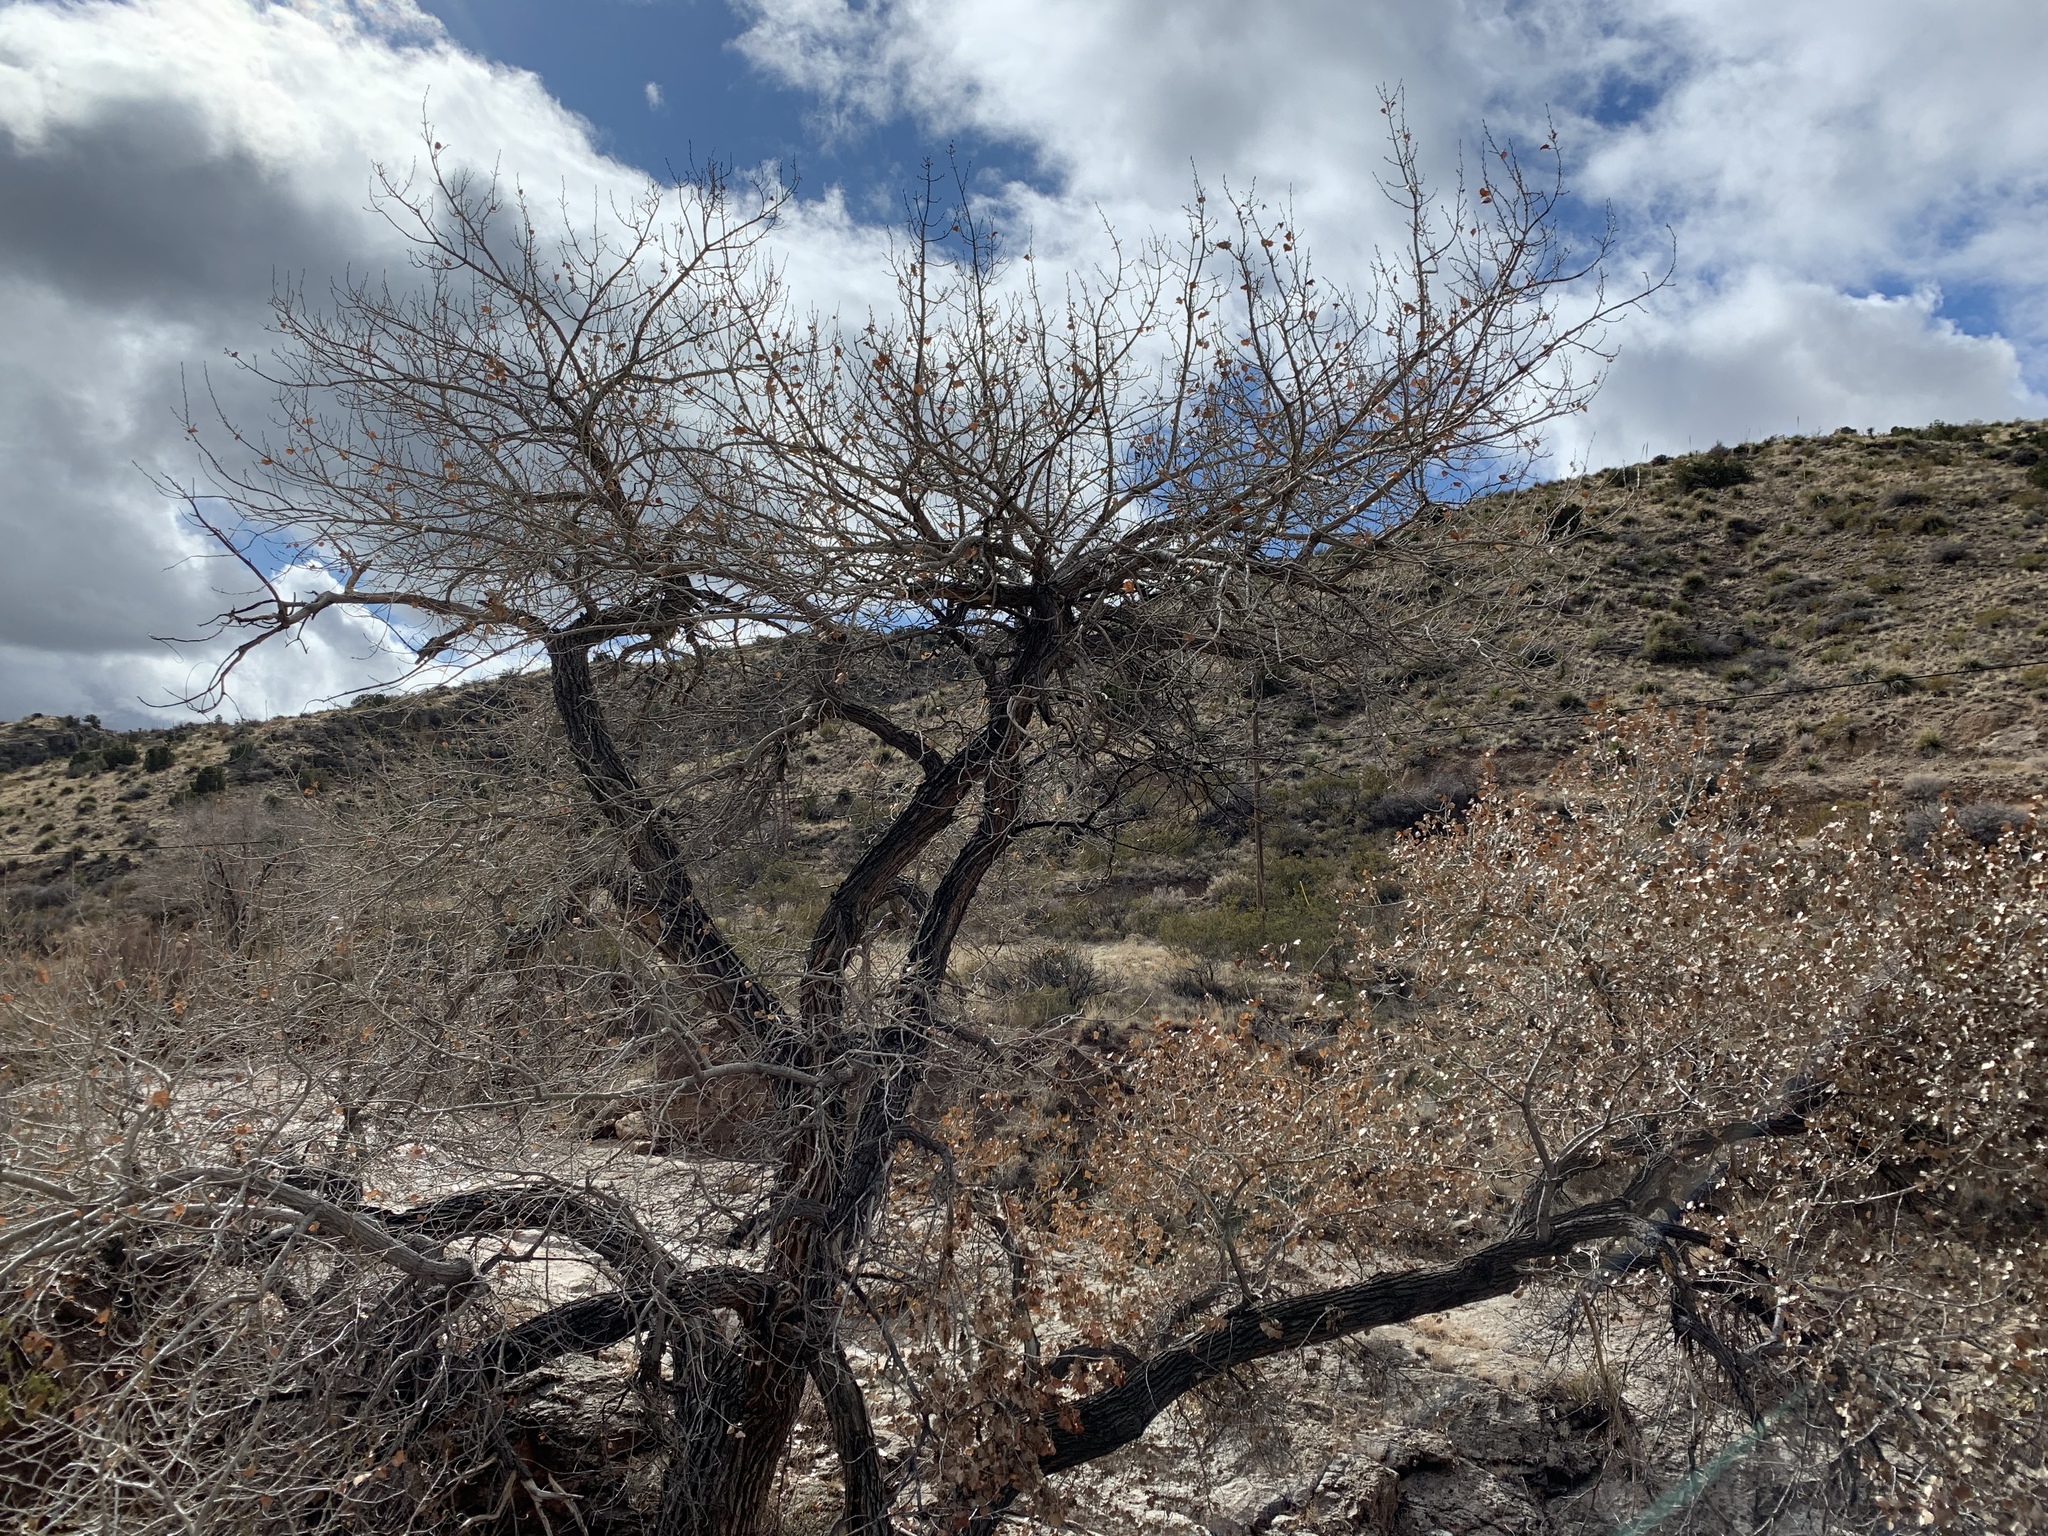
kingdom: Plantae
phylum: Tracheophyta
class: Magnoliopsida
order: Malpighiales
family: Salicaceae
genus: Populus
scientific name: Populus deltoides
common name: Eastern cottonwood
